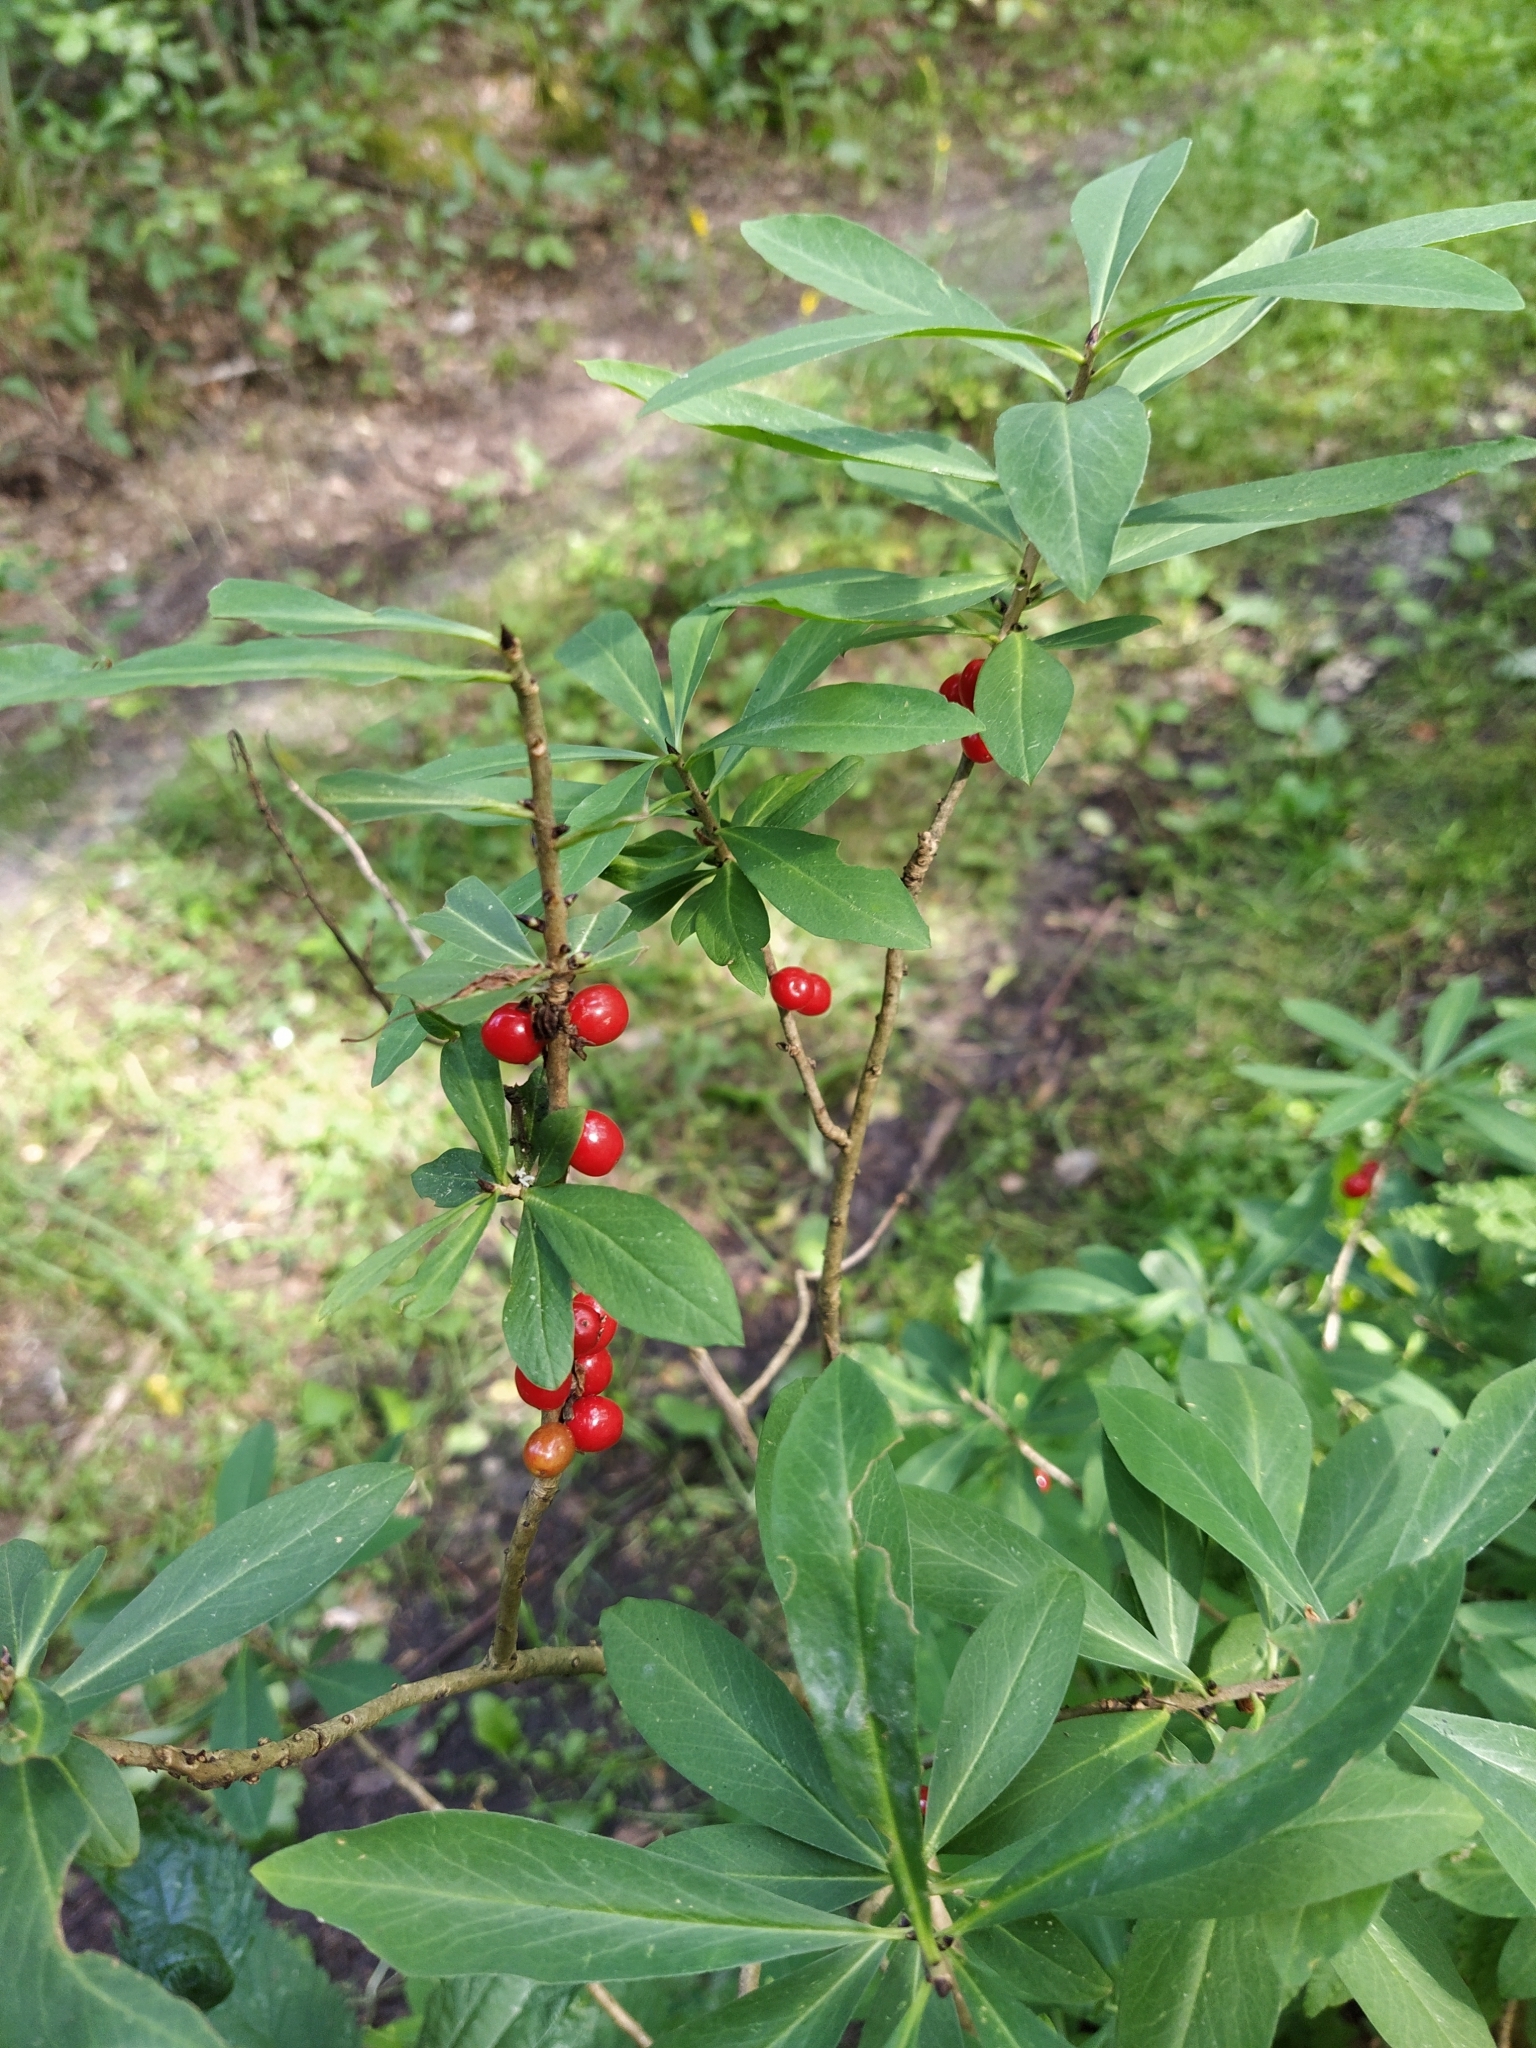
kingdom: Plantae
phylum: Tracheophyta
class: Magnoliopsida
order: Malvales
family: Thymelaeaceae
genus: Daphne
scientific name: Daphne mezereum
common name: Mezereon
